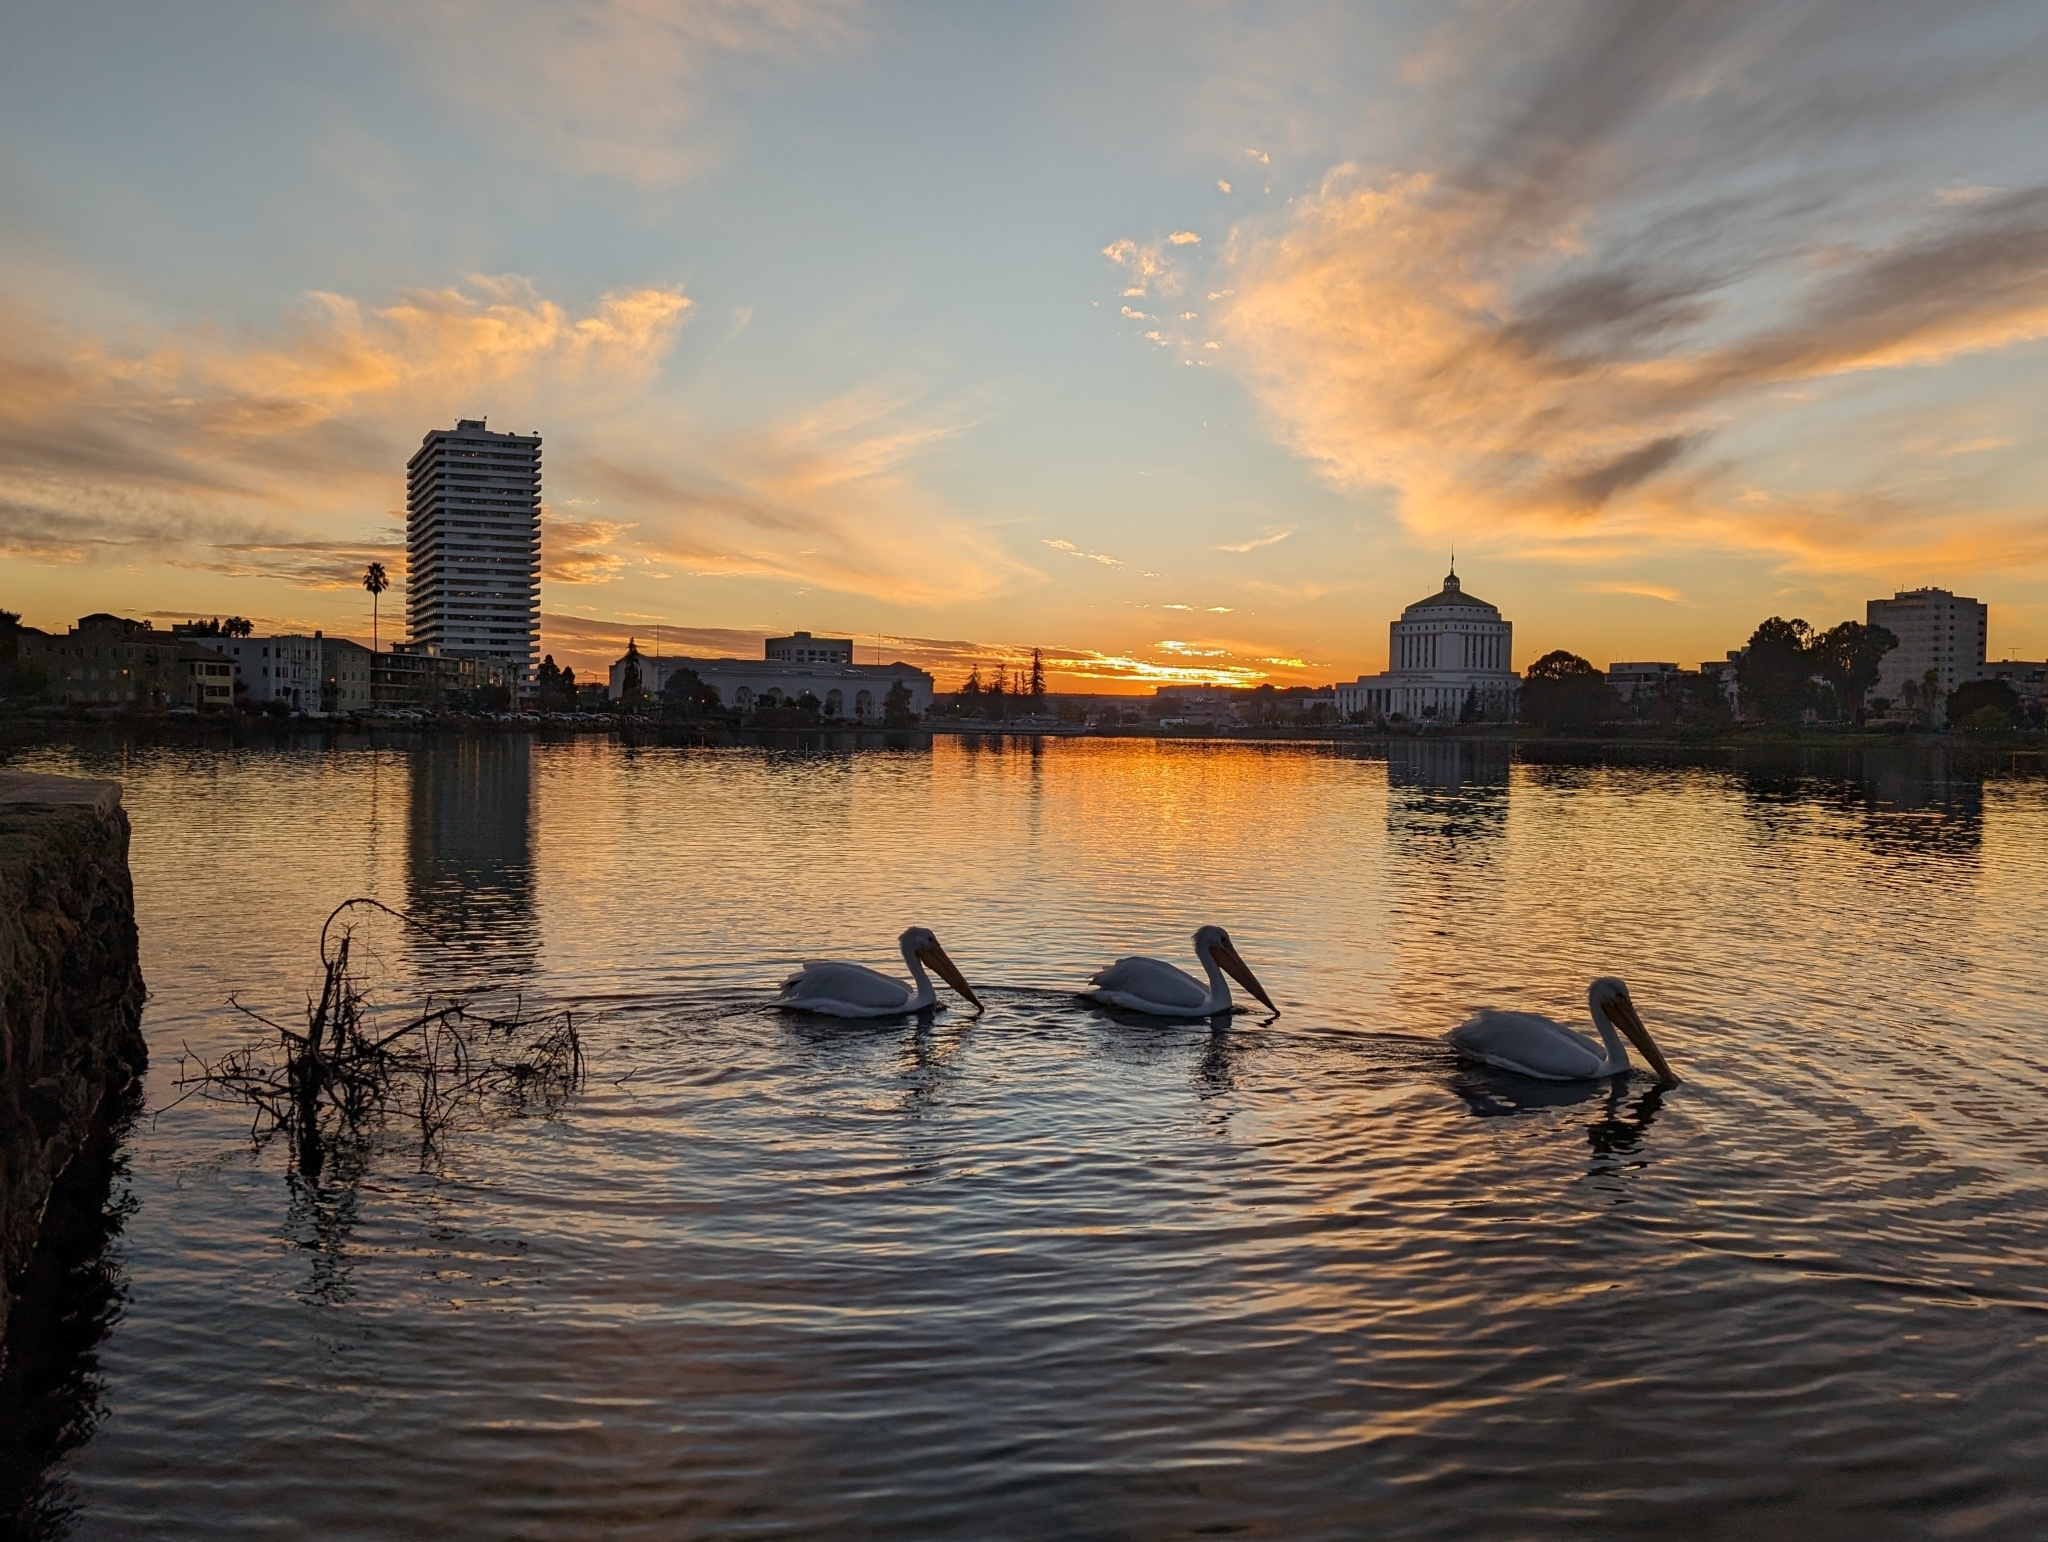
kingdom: Animalia
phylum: Chordata
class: Aves
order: Pelecaniformes
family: Pelecanidae
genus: Pelecanus
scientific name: Pelecanus erythrorhynchos
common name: American white pelican
